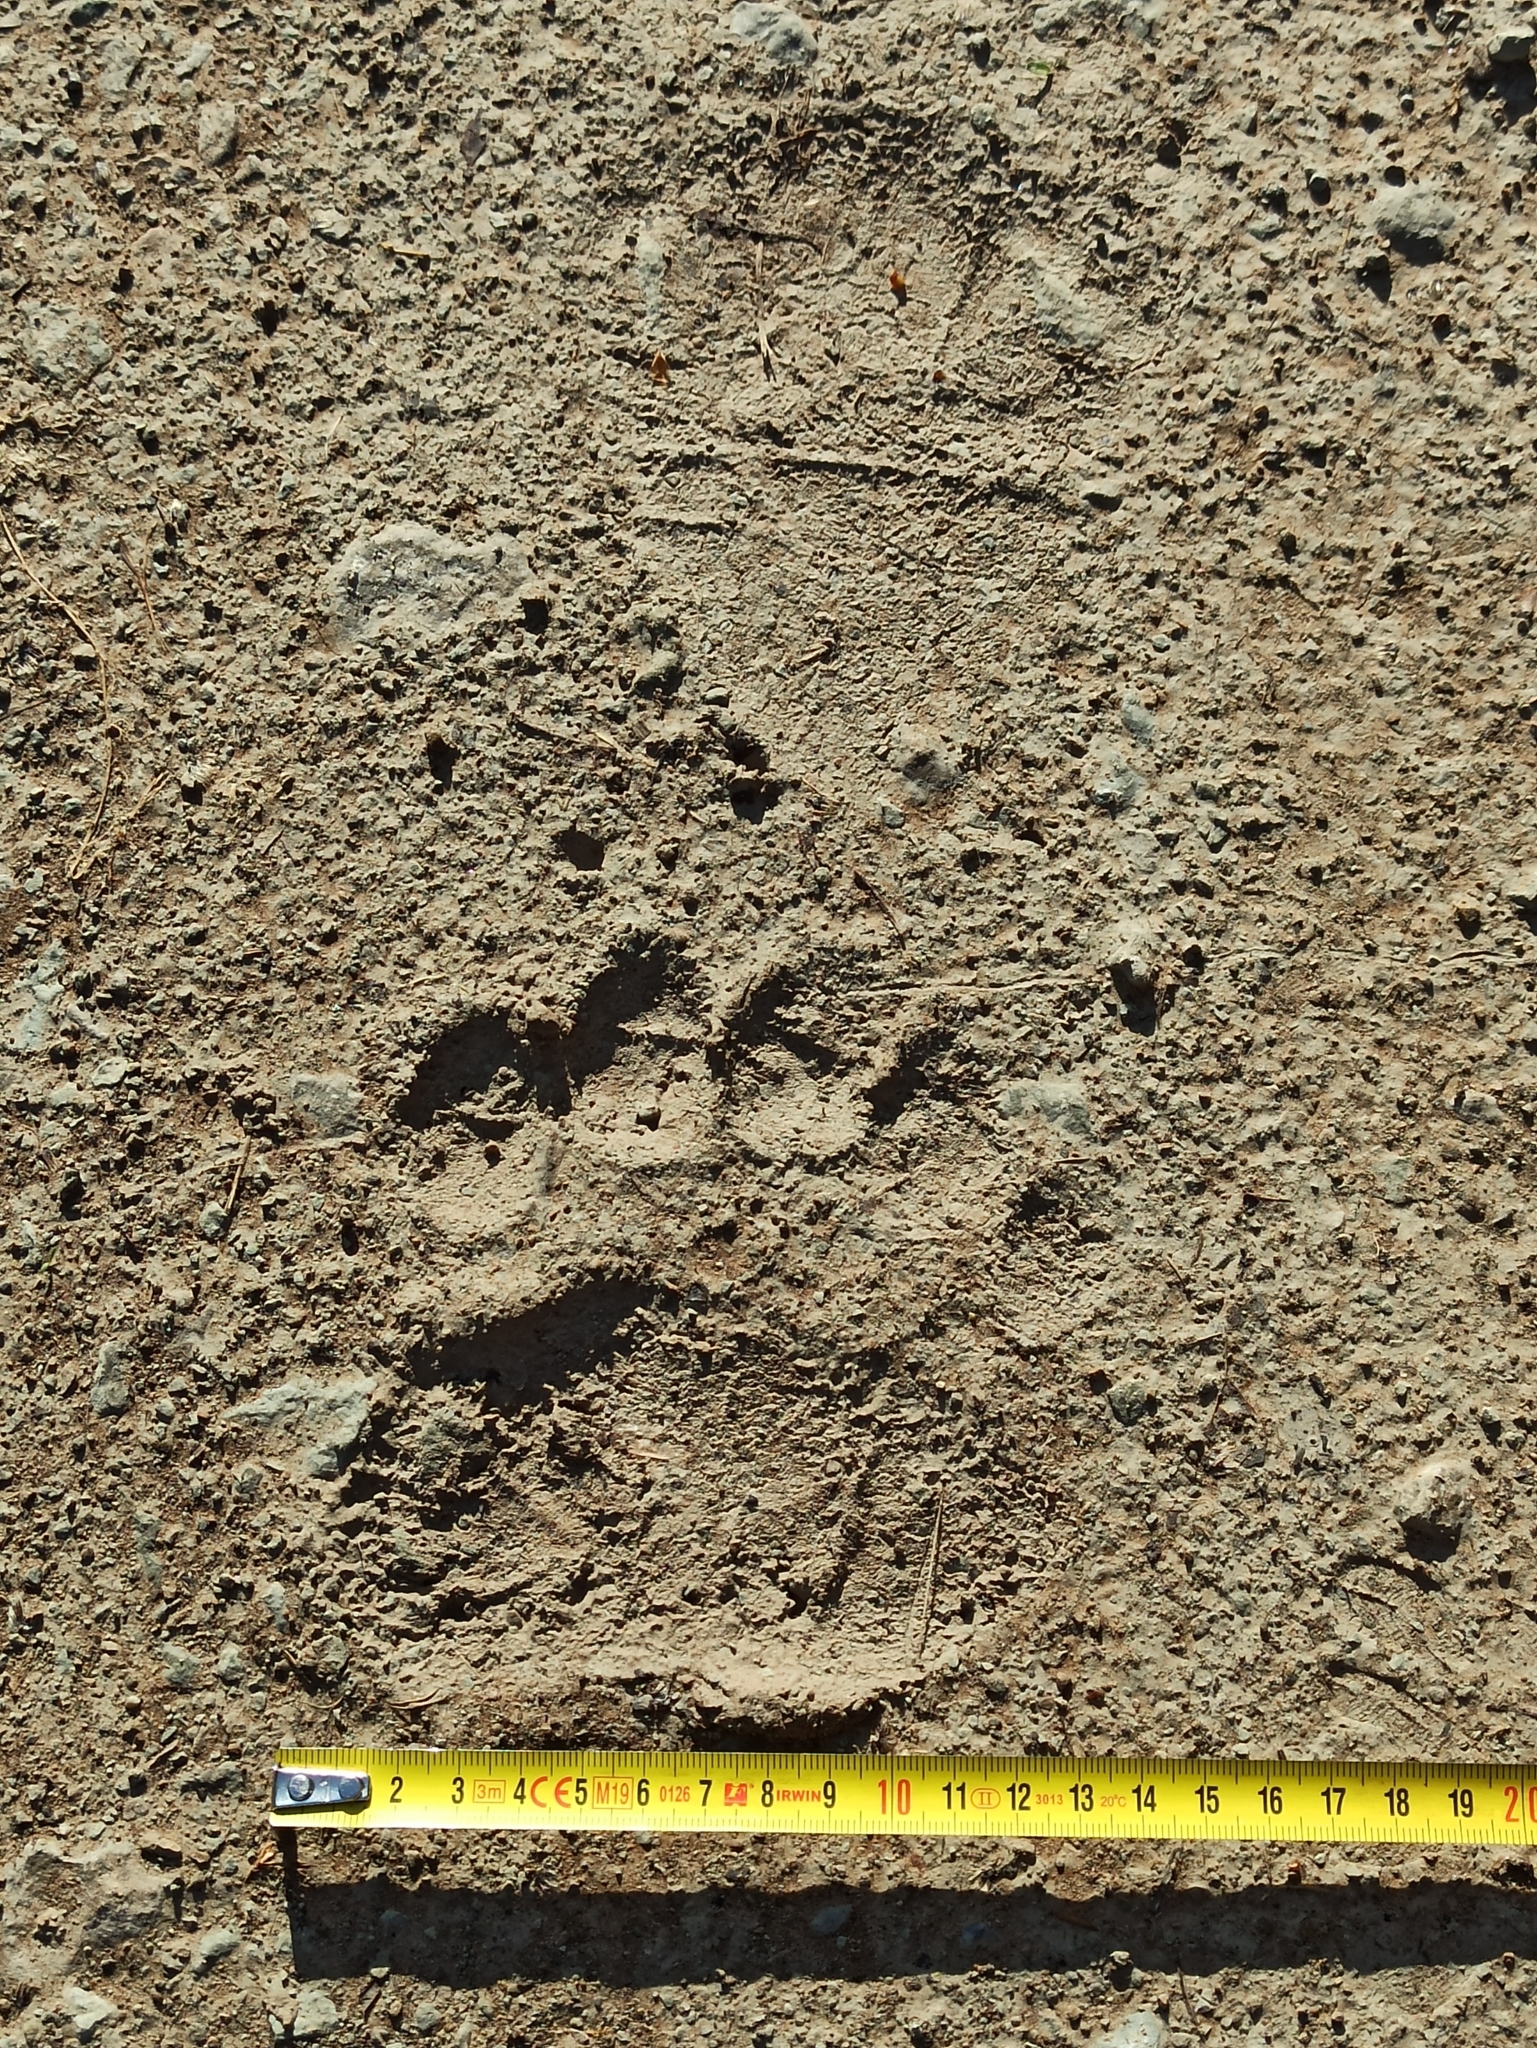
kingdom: Animalia
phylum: Chordata
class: Mammalia
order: Carnivora
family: Ursidae
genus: Ursus
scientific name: Ursus arctos
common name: Brown bear
